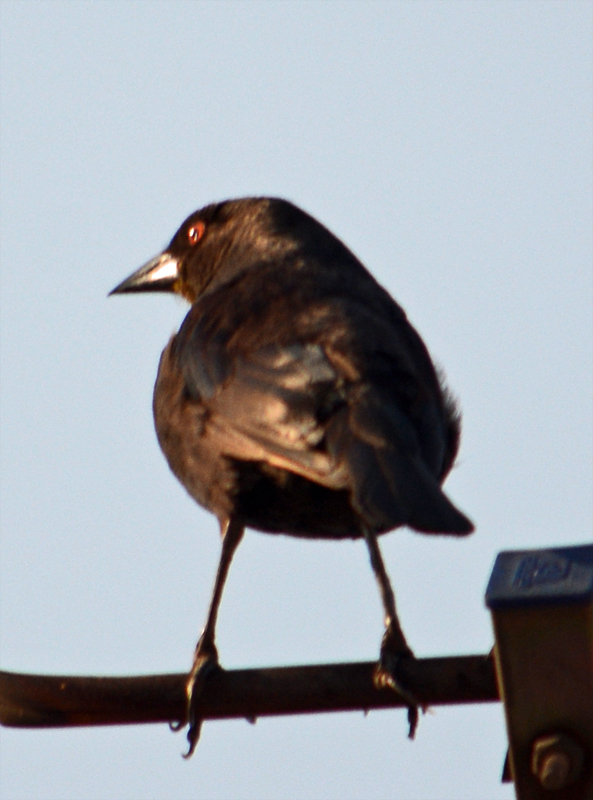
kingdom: Animalia
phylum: Chordata
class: Aves
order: Passeriformes
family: Icteridae
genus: Molothrus
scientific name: Molothrus aeneus
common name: Bronzed cowbird
